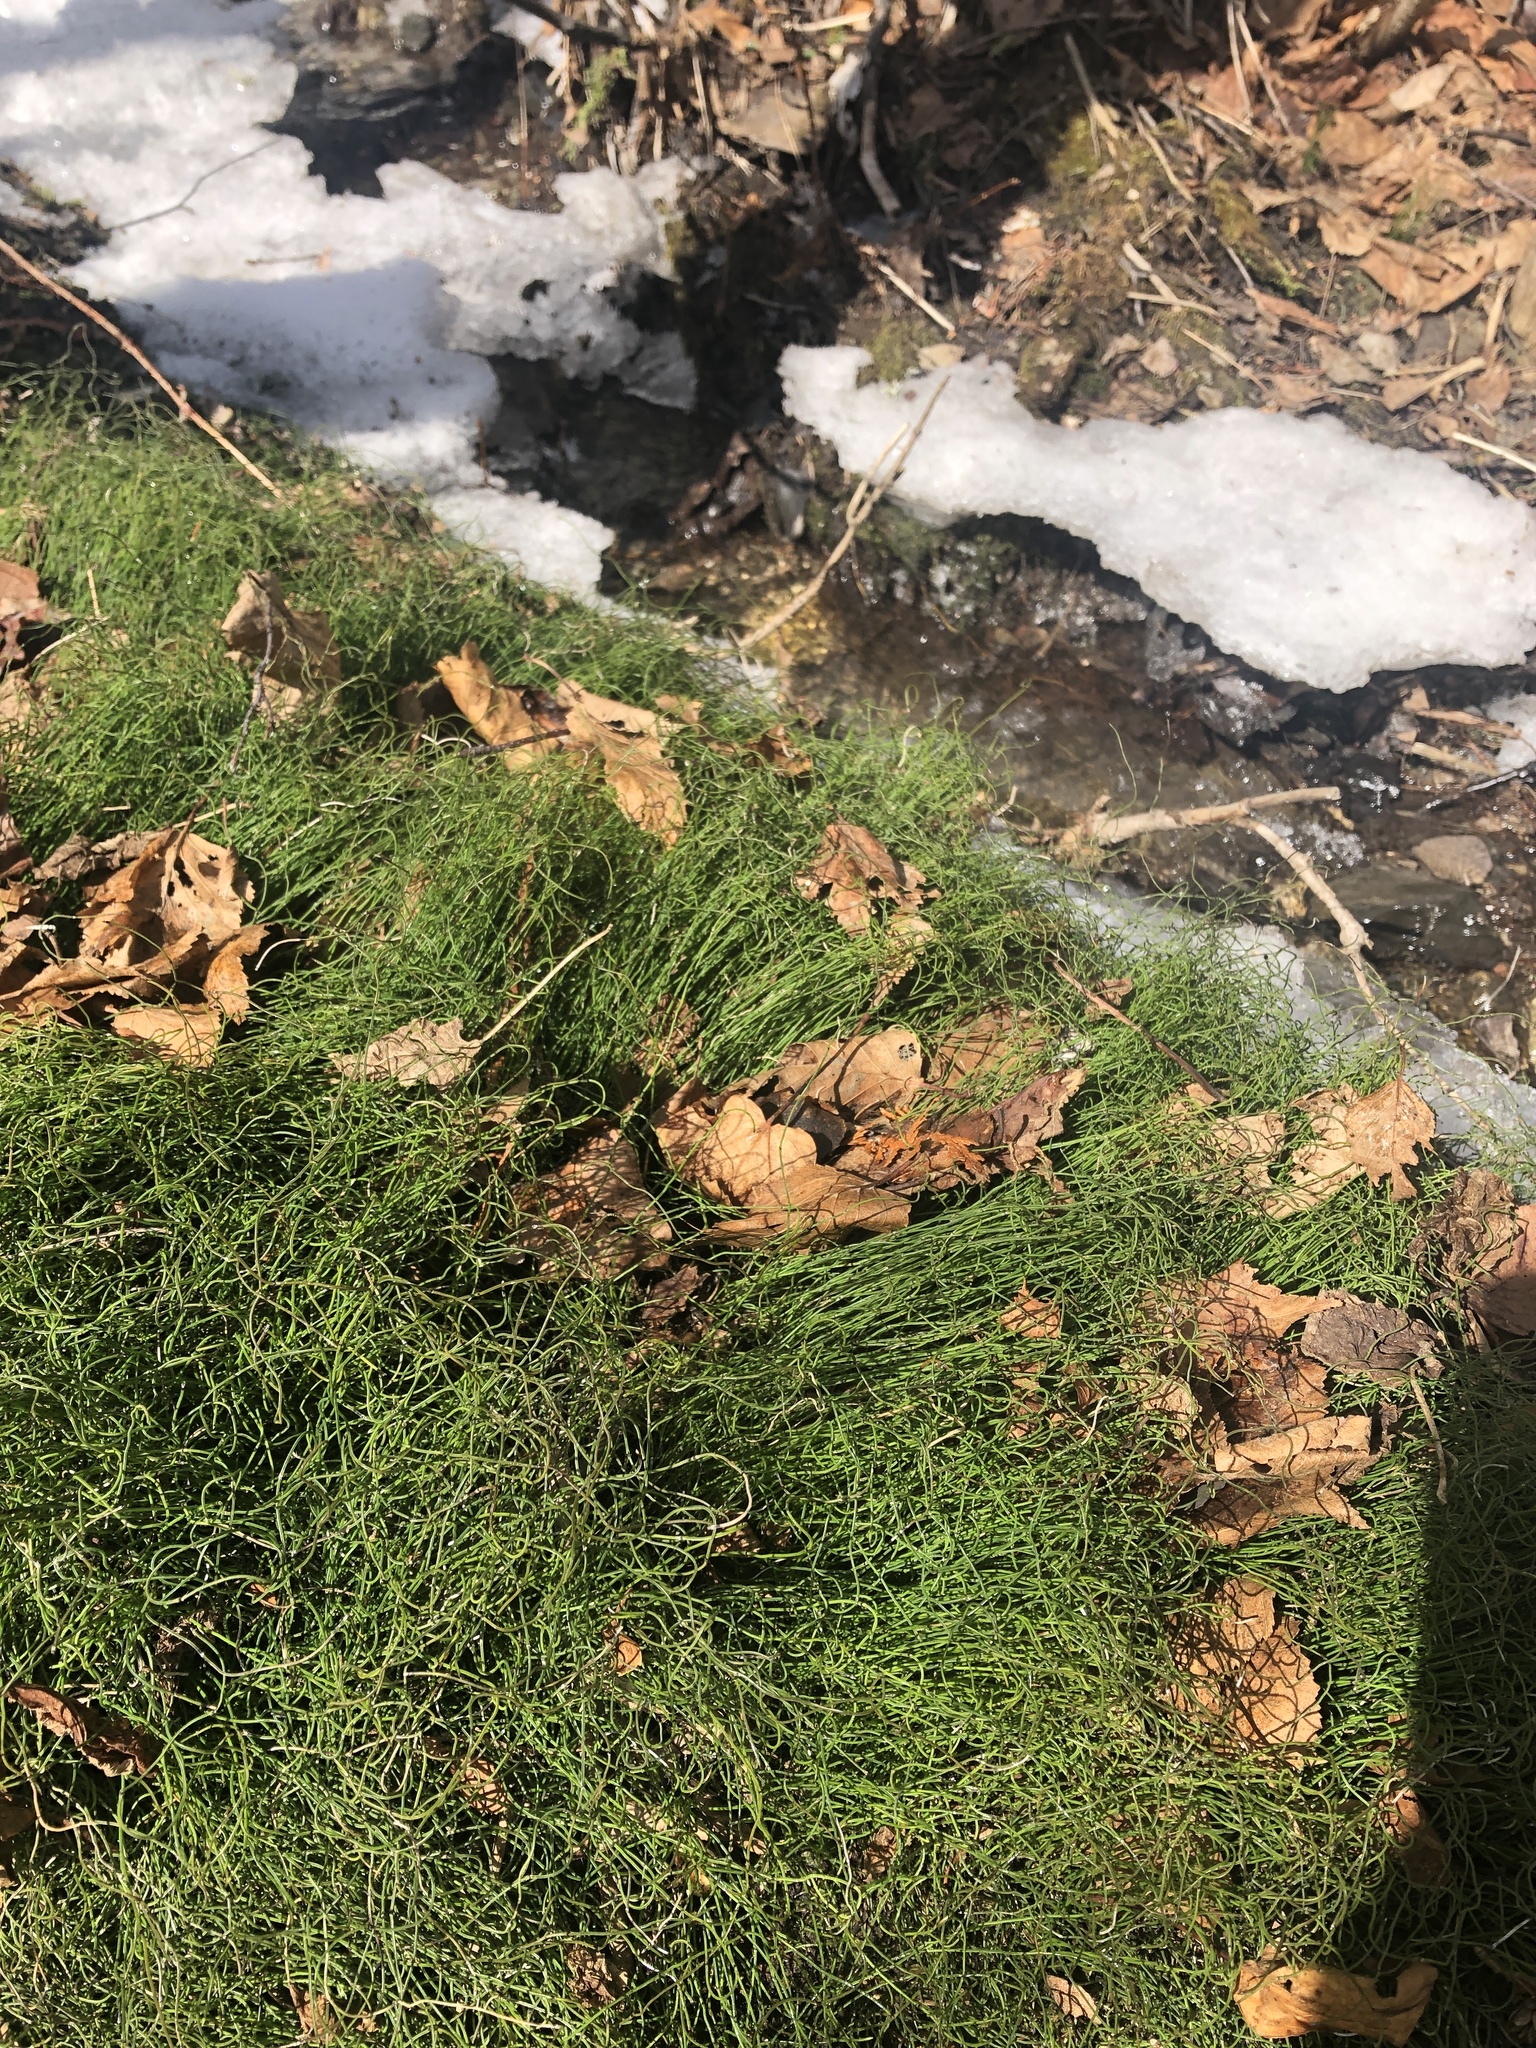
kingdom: Plantae
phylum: Tracheophyta
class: Polypodiopsida
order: Equisetales
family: Equisetaceae
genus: Equisetum
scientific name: Equisetum scirpoides
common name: Delicate horsetail
